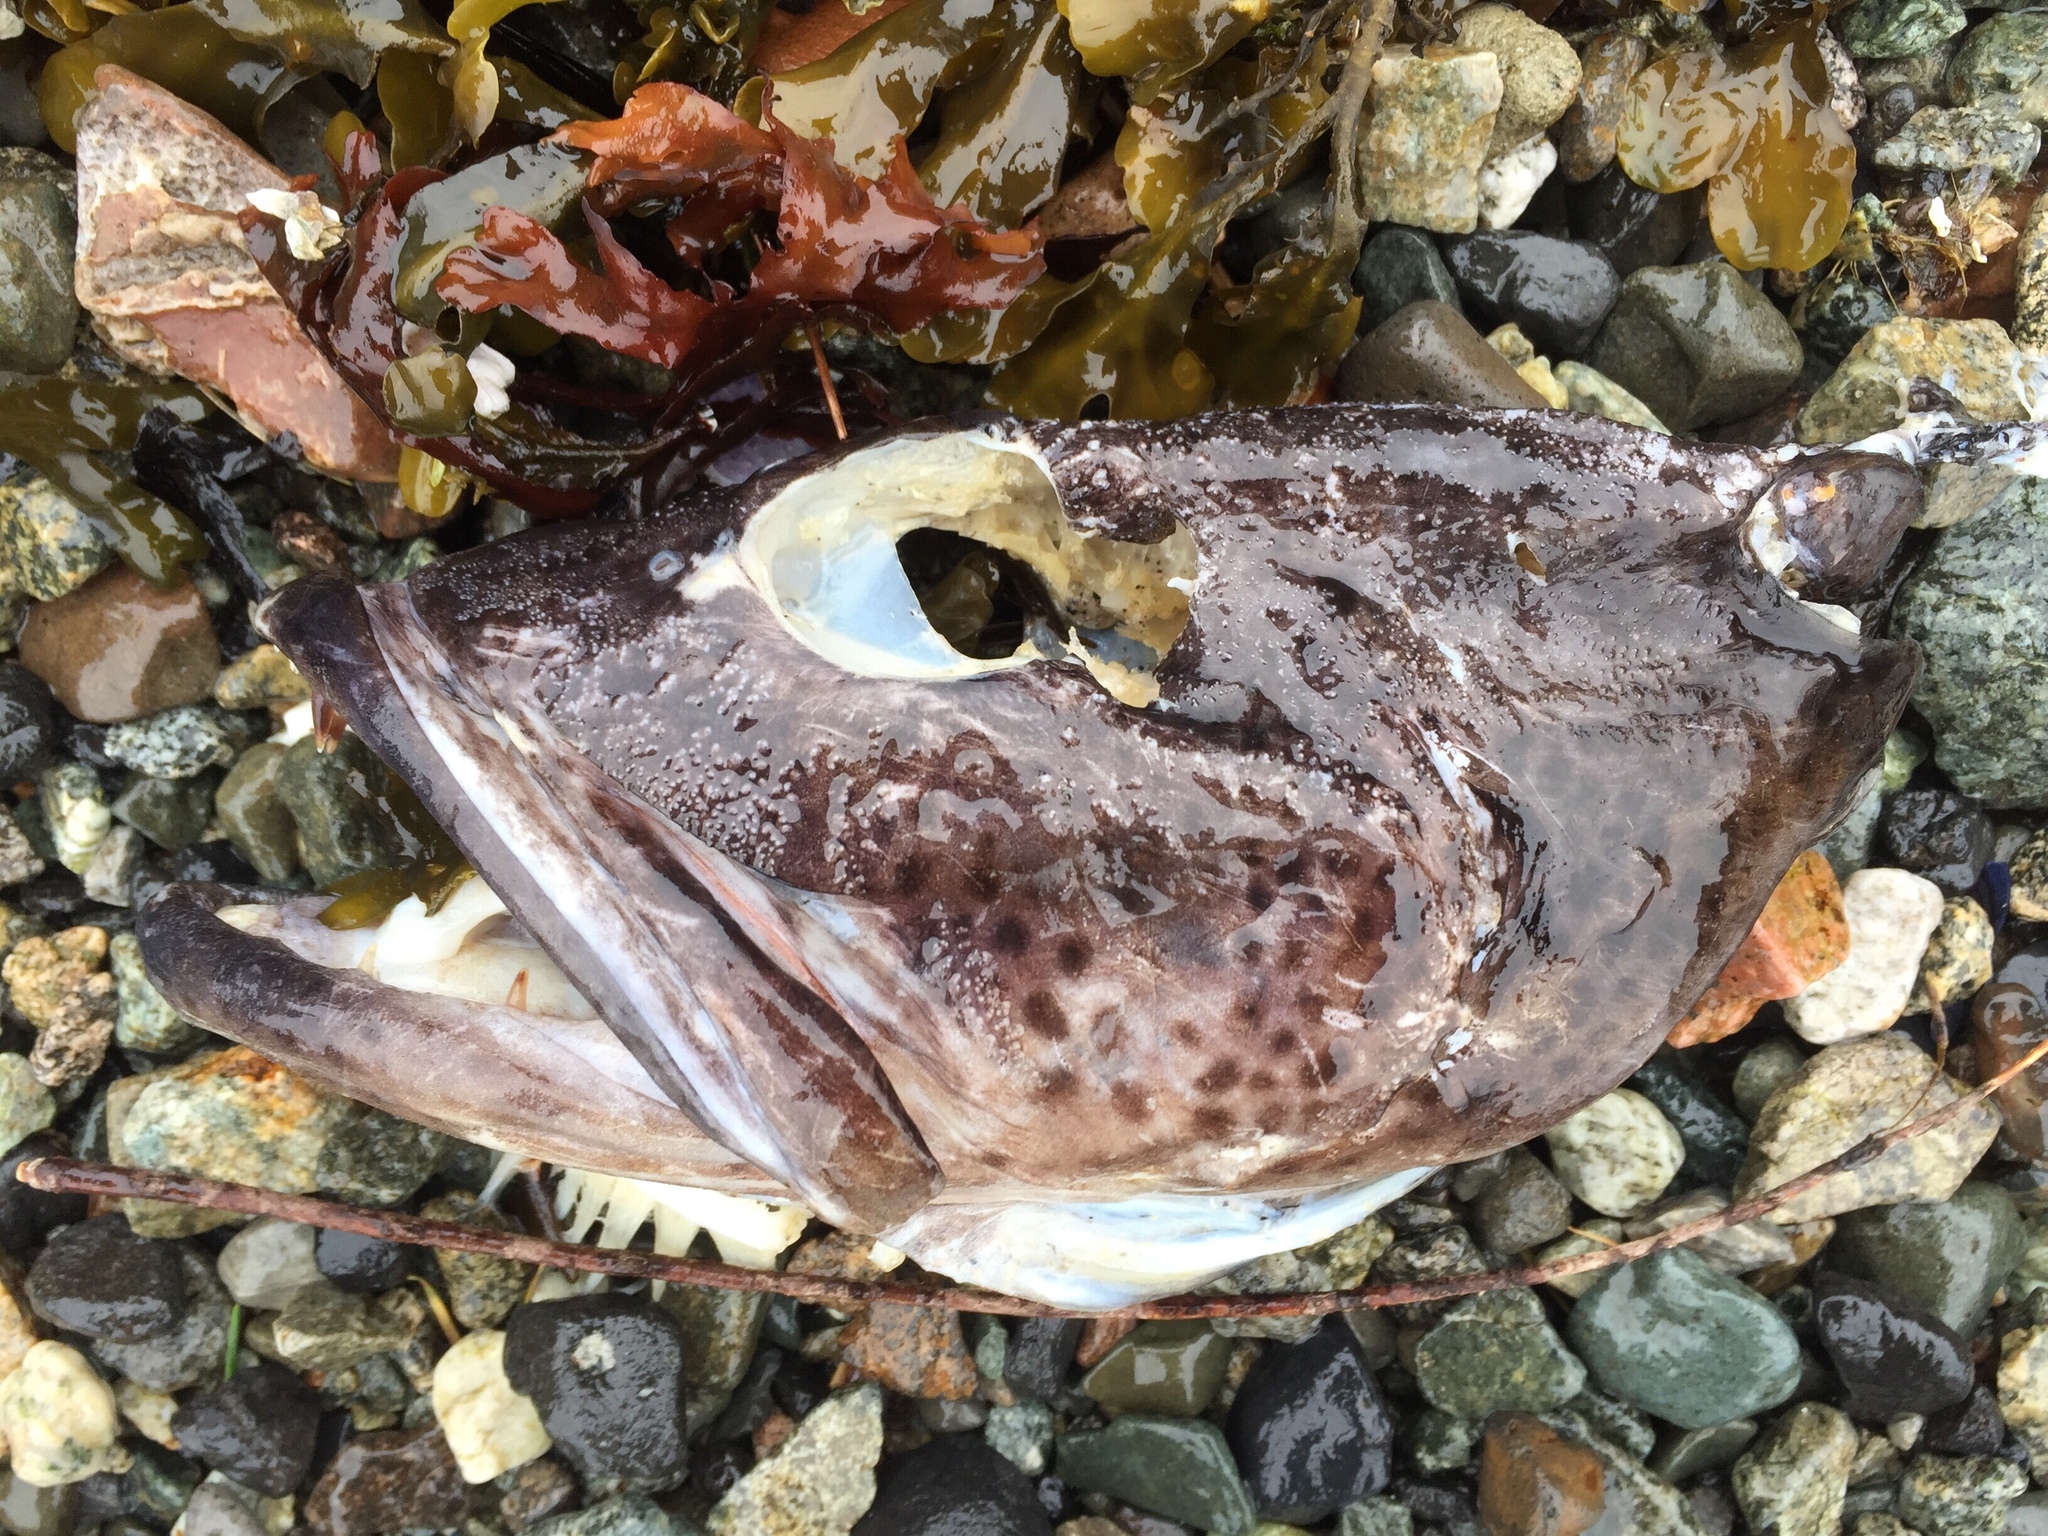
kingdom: Animalia
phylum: Chordata
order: Scorpaeniformes
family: Hexagrammidae
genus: Ophiodon
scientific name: Ophiodon elongatus
